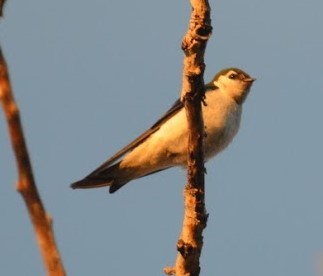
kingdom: Animalia
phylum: Chordata
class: Aves
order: Passeriformes
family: Hirundinidae
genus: Tachycineta
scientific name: Tachycineta thalassina
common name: Violet-green swallow
